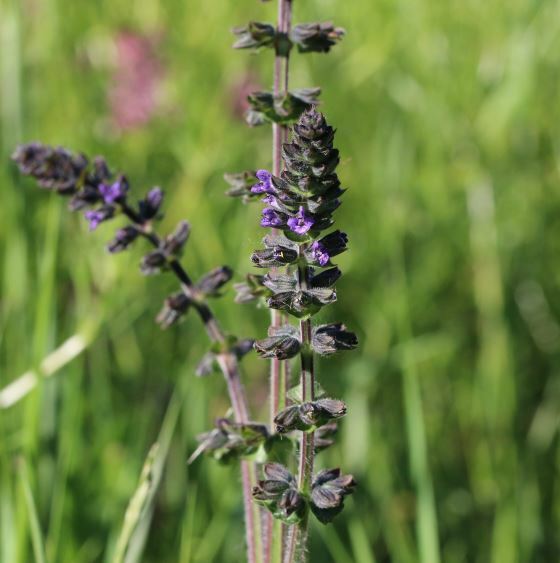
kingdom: Plantae
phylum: Tracheophyta
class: Magnoliopsida
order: Lamiales
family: Lamiaceae
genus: Salvia
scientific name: Salvia verbenaca
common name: Wild clary
